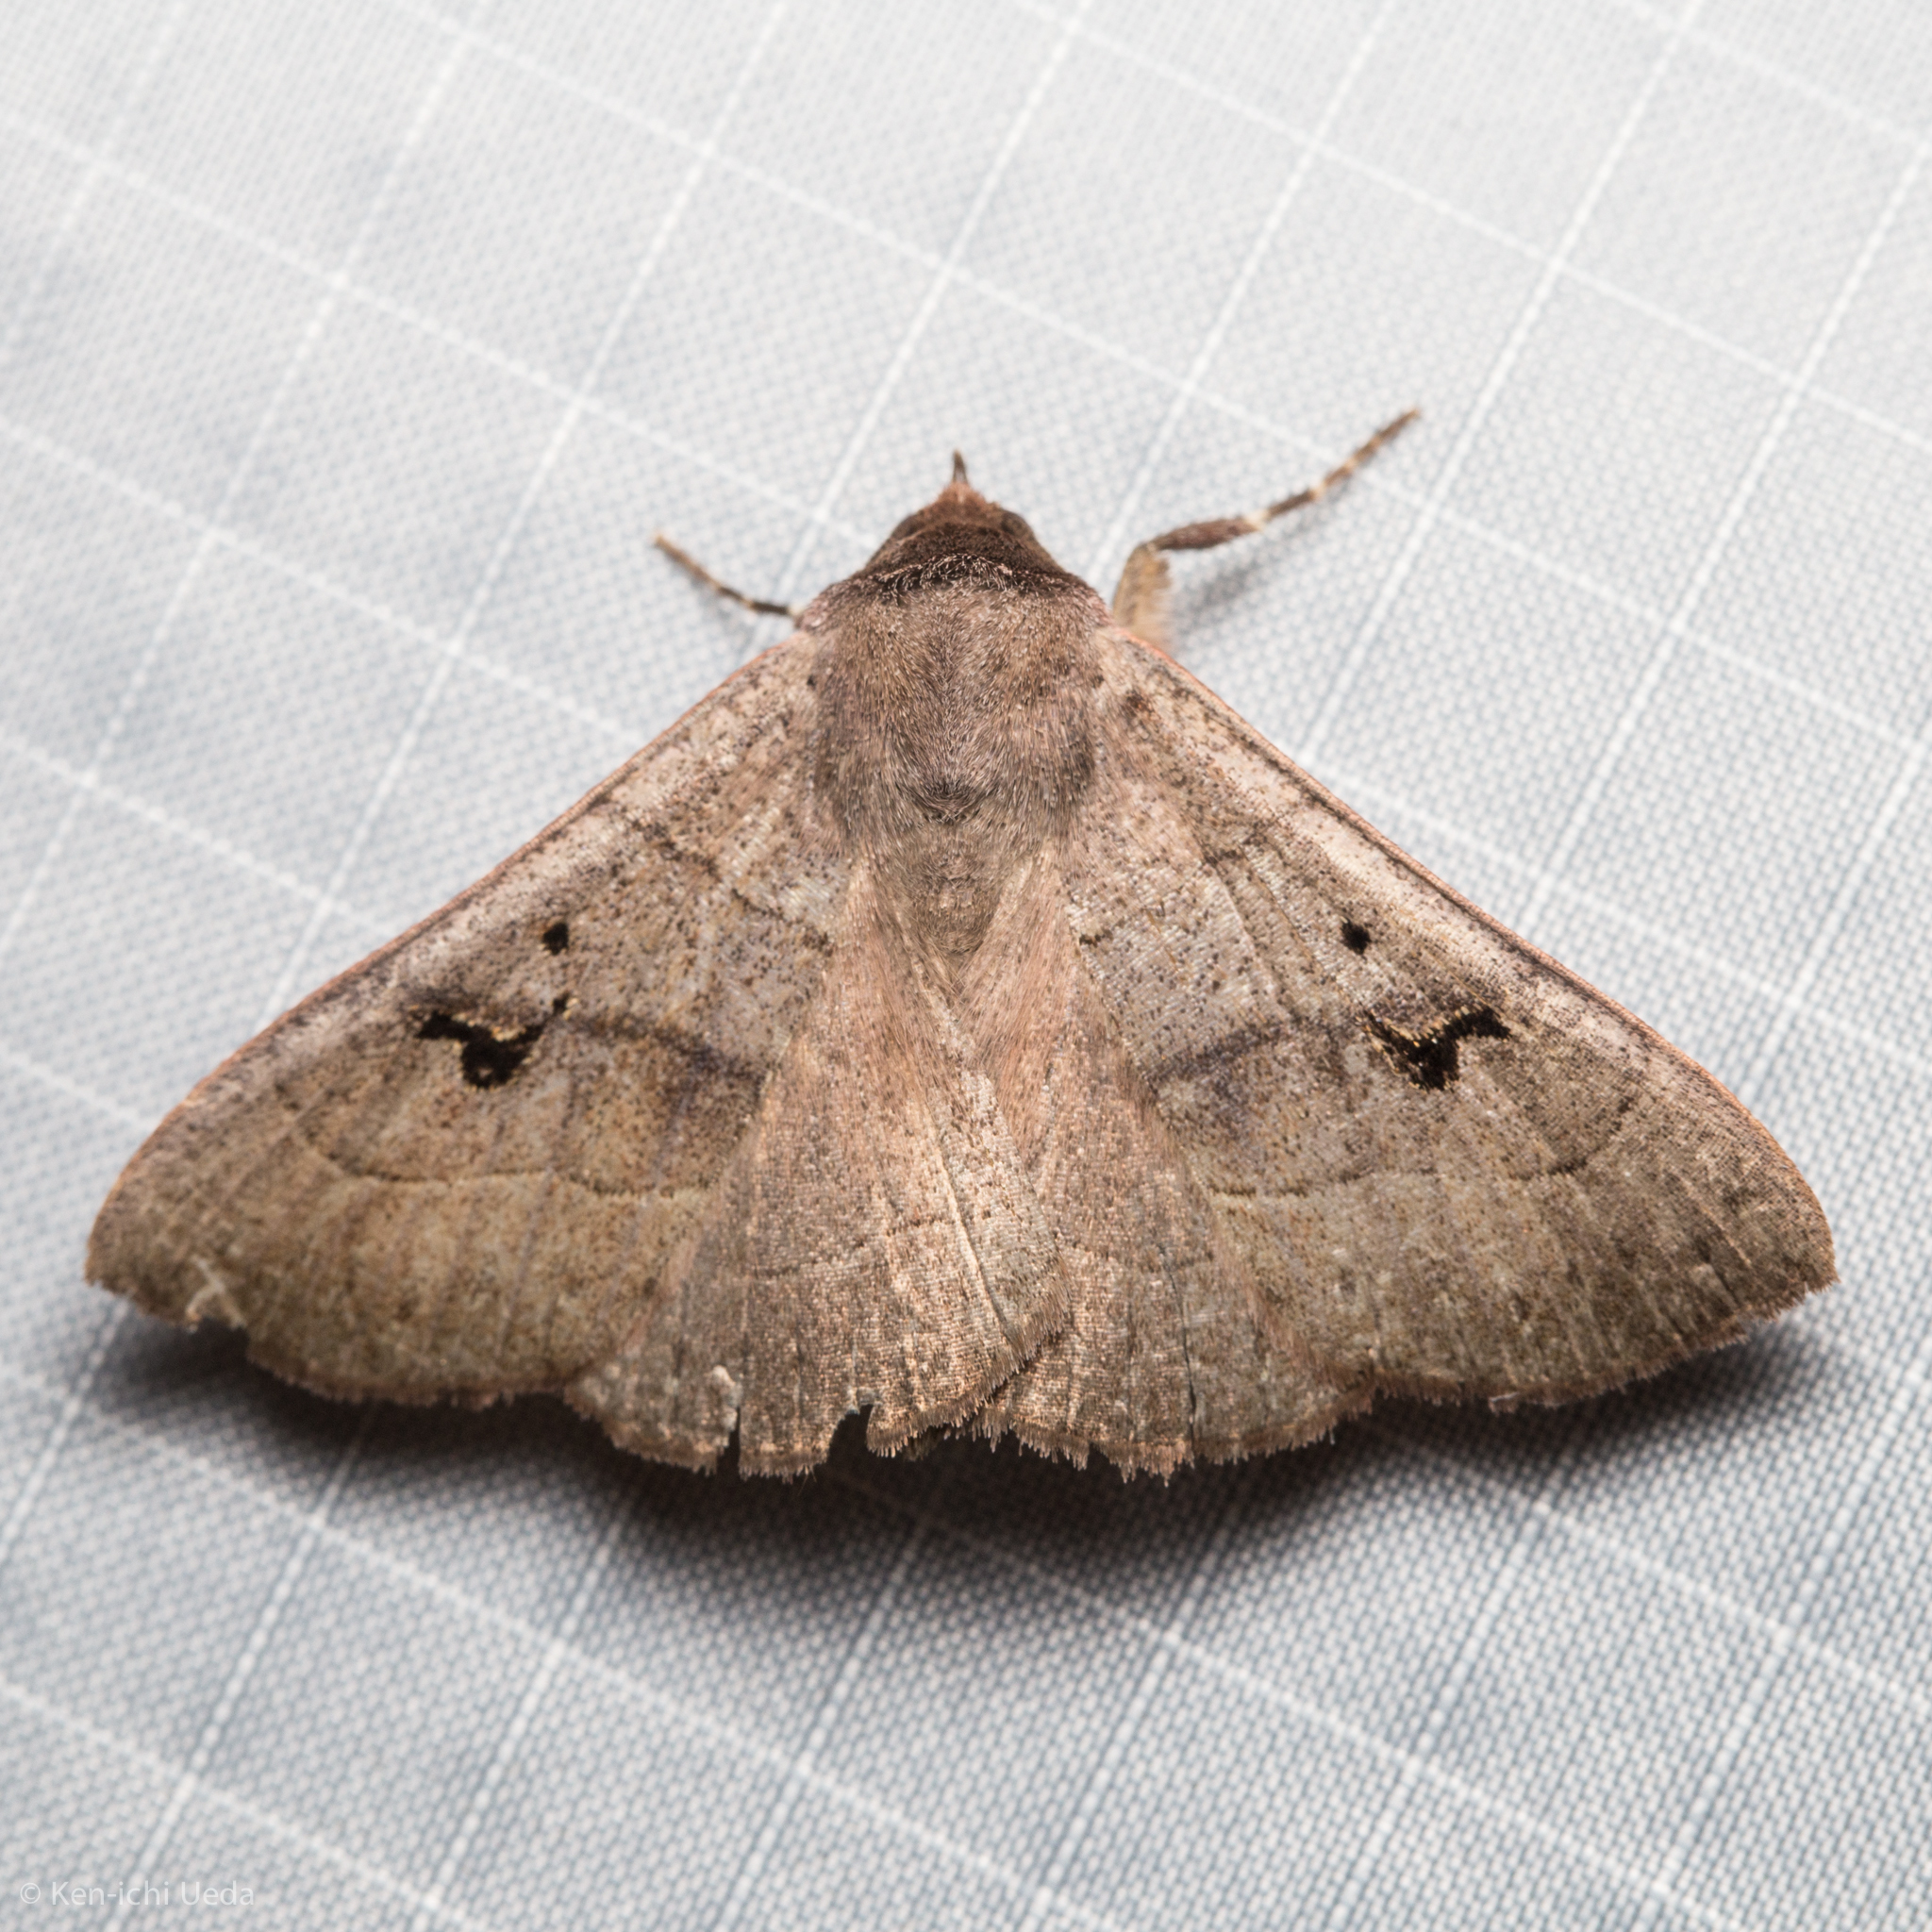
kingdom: Animalia
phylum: Arthropoda
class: Insecta
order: Lepidoptera
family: Erebidae
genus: Panopoda
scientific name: Panopoda carneicosta
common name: Brown panopoda moth
